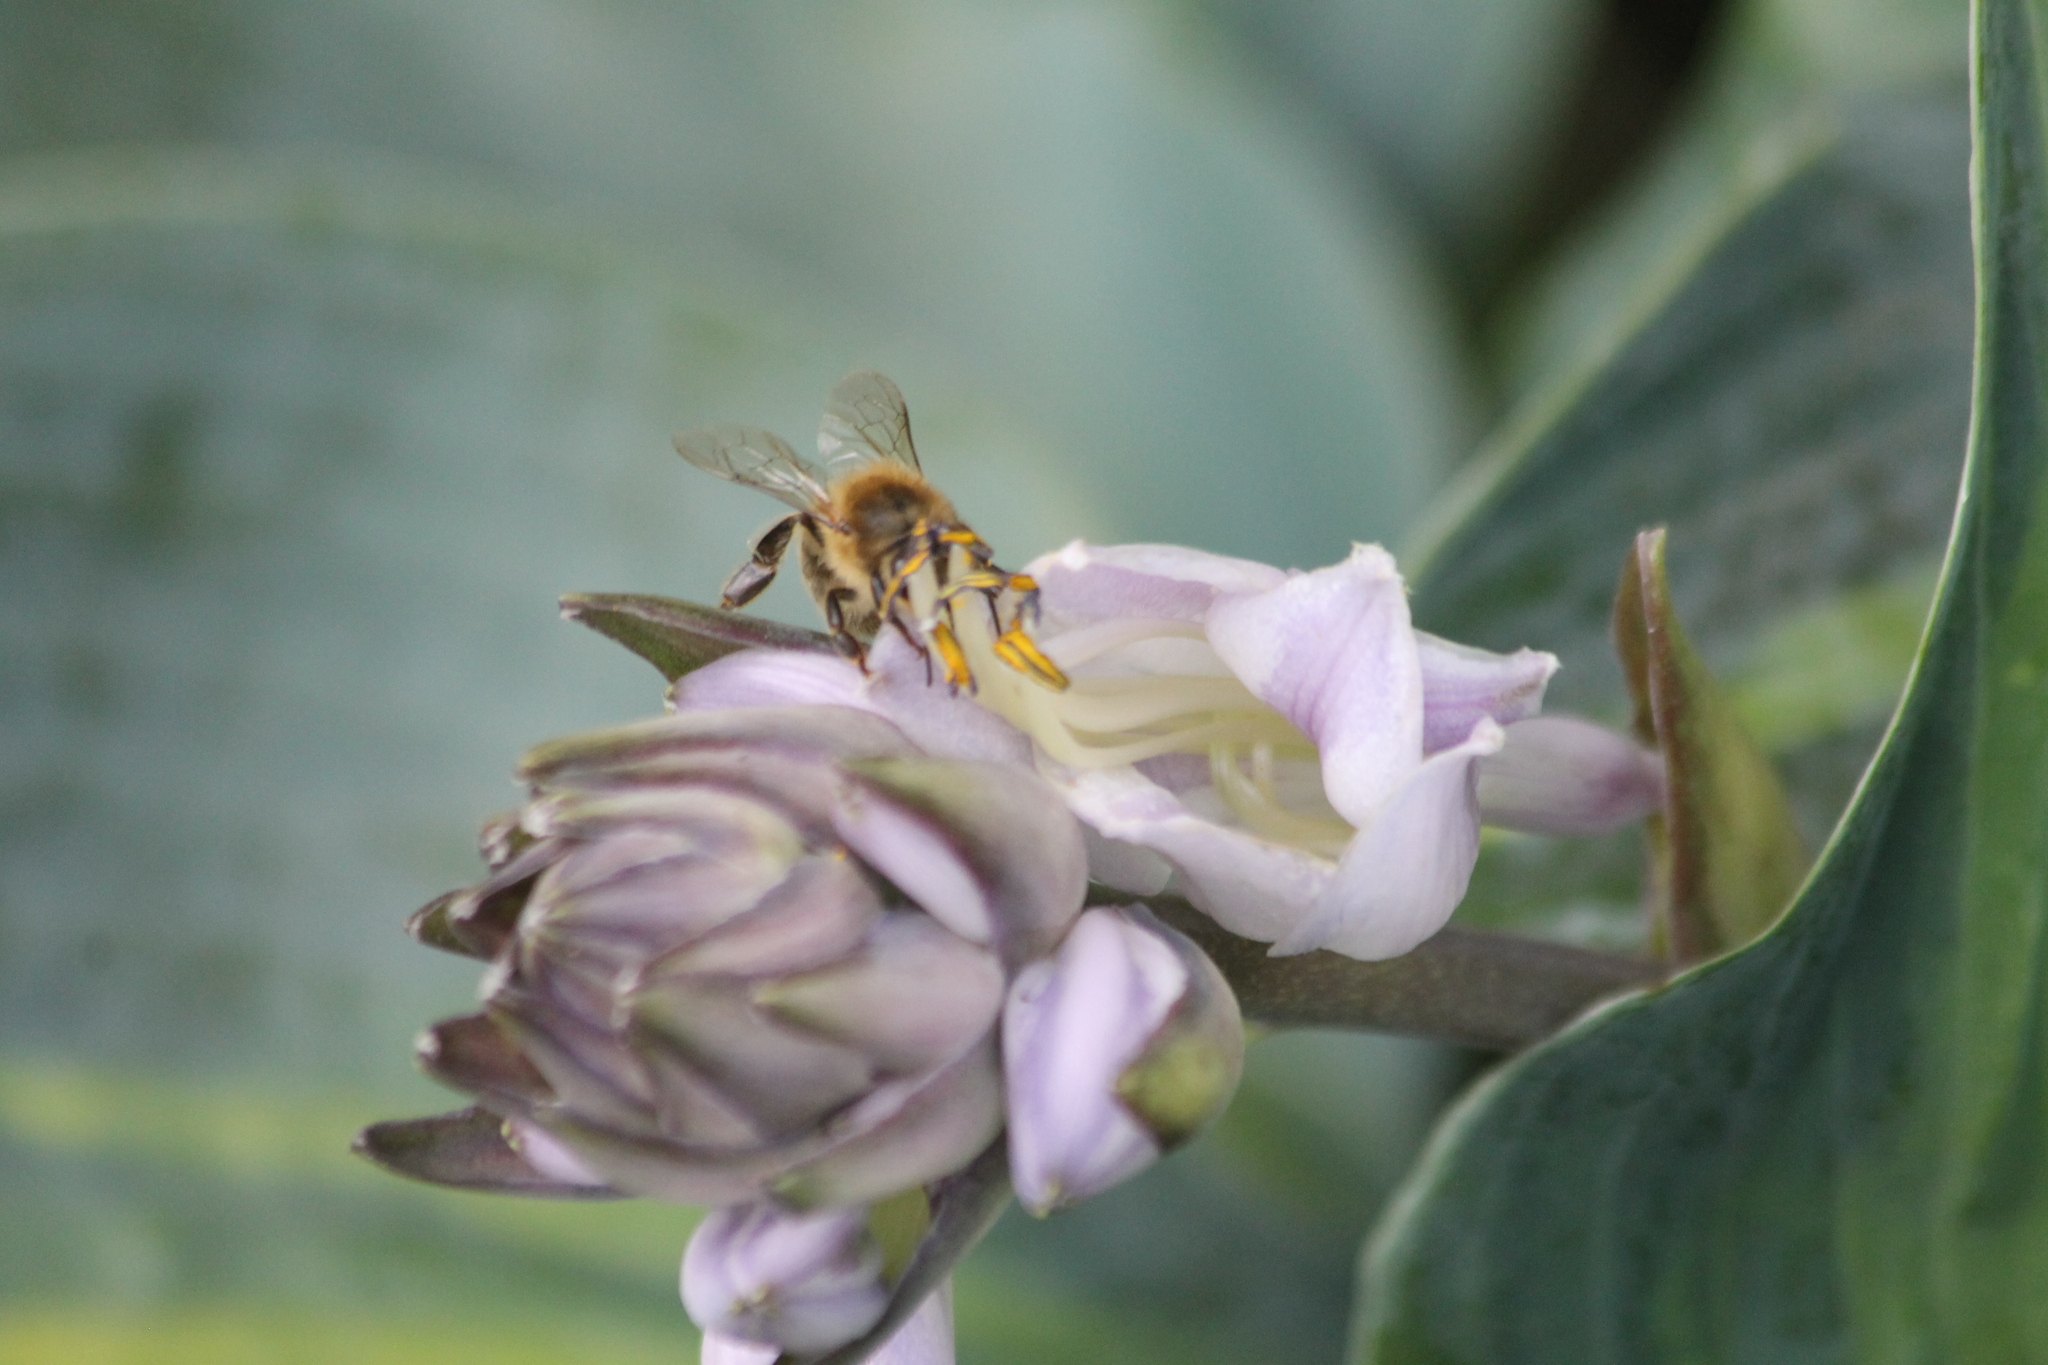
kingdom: Animalia
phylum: Arthropoda
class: Insecta
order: Hymenoptera
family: Apidae
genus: Apis
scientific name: Apis mellifera
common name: Honey bee
